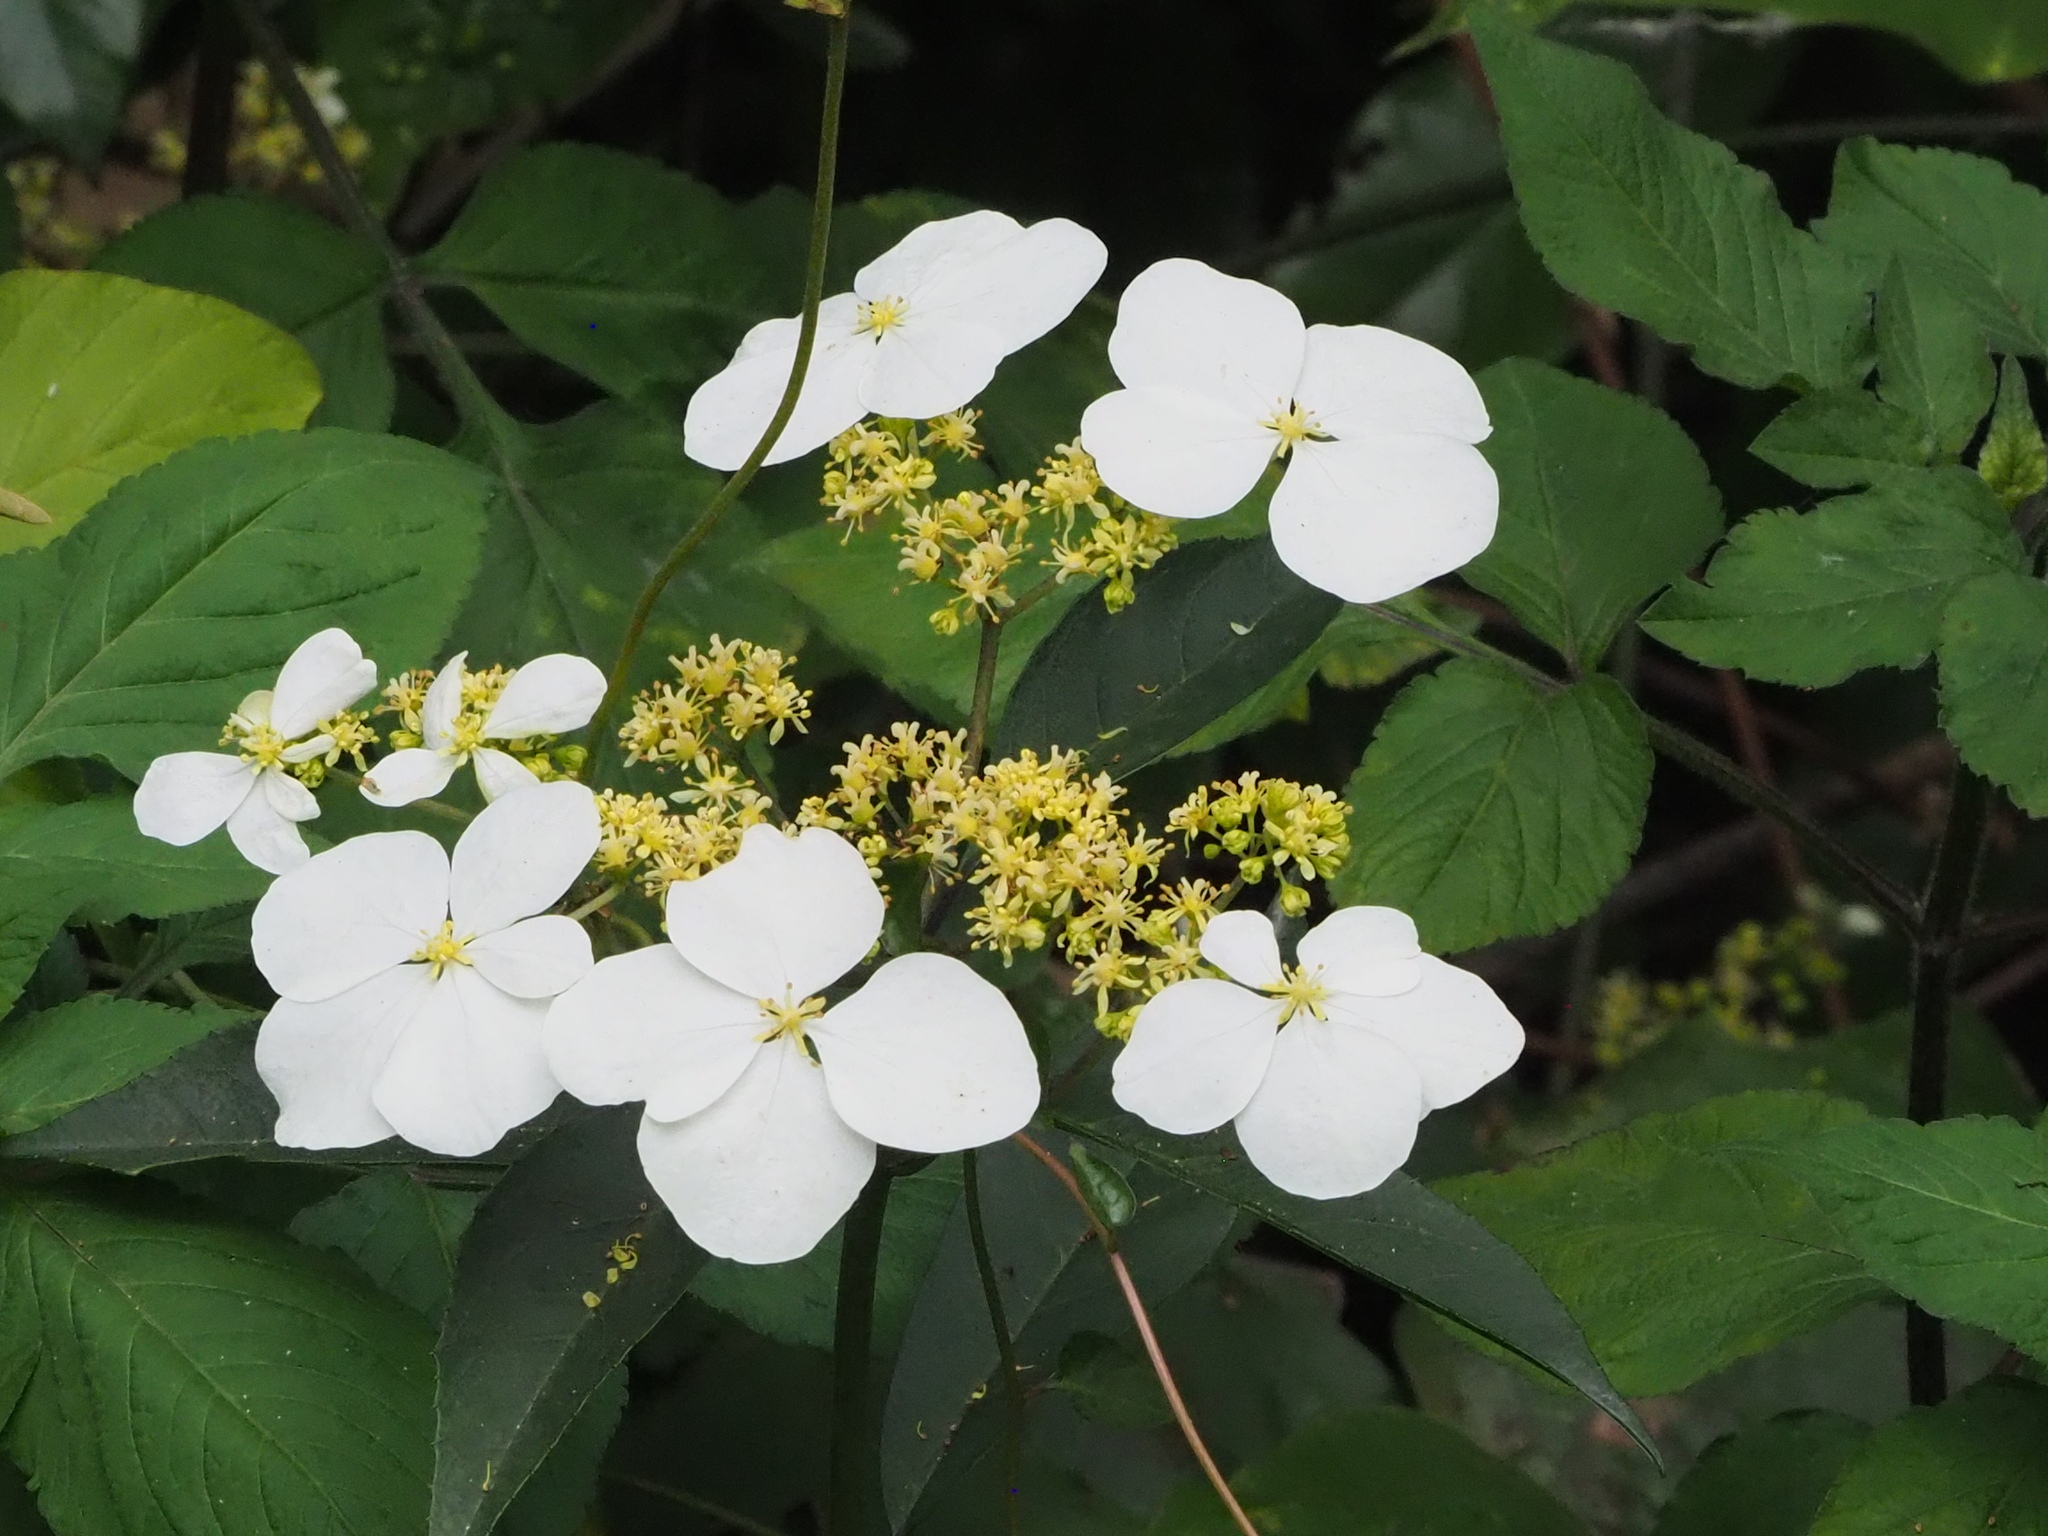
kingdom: Plantae
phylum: Tracheophyta
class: Magnoliopsida
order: Cornales
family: Hydrangeaceae
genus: Hydrangea
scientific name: Hydrangea chinensis
